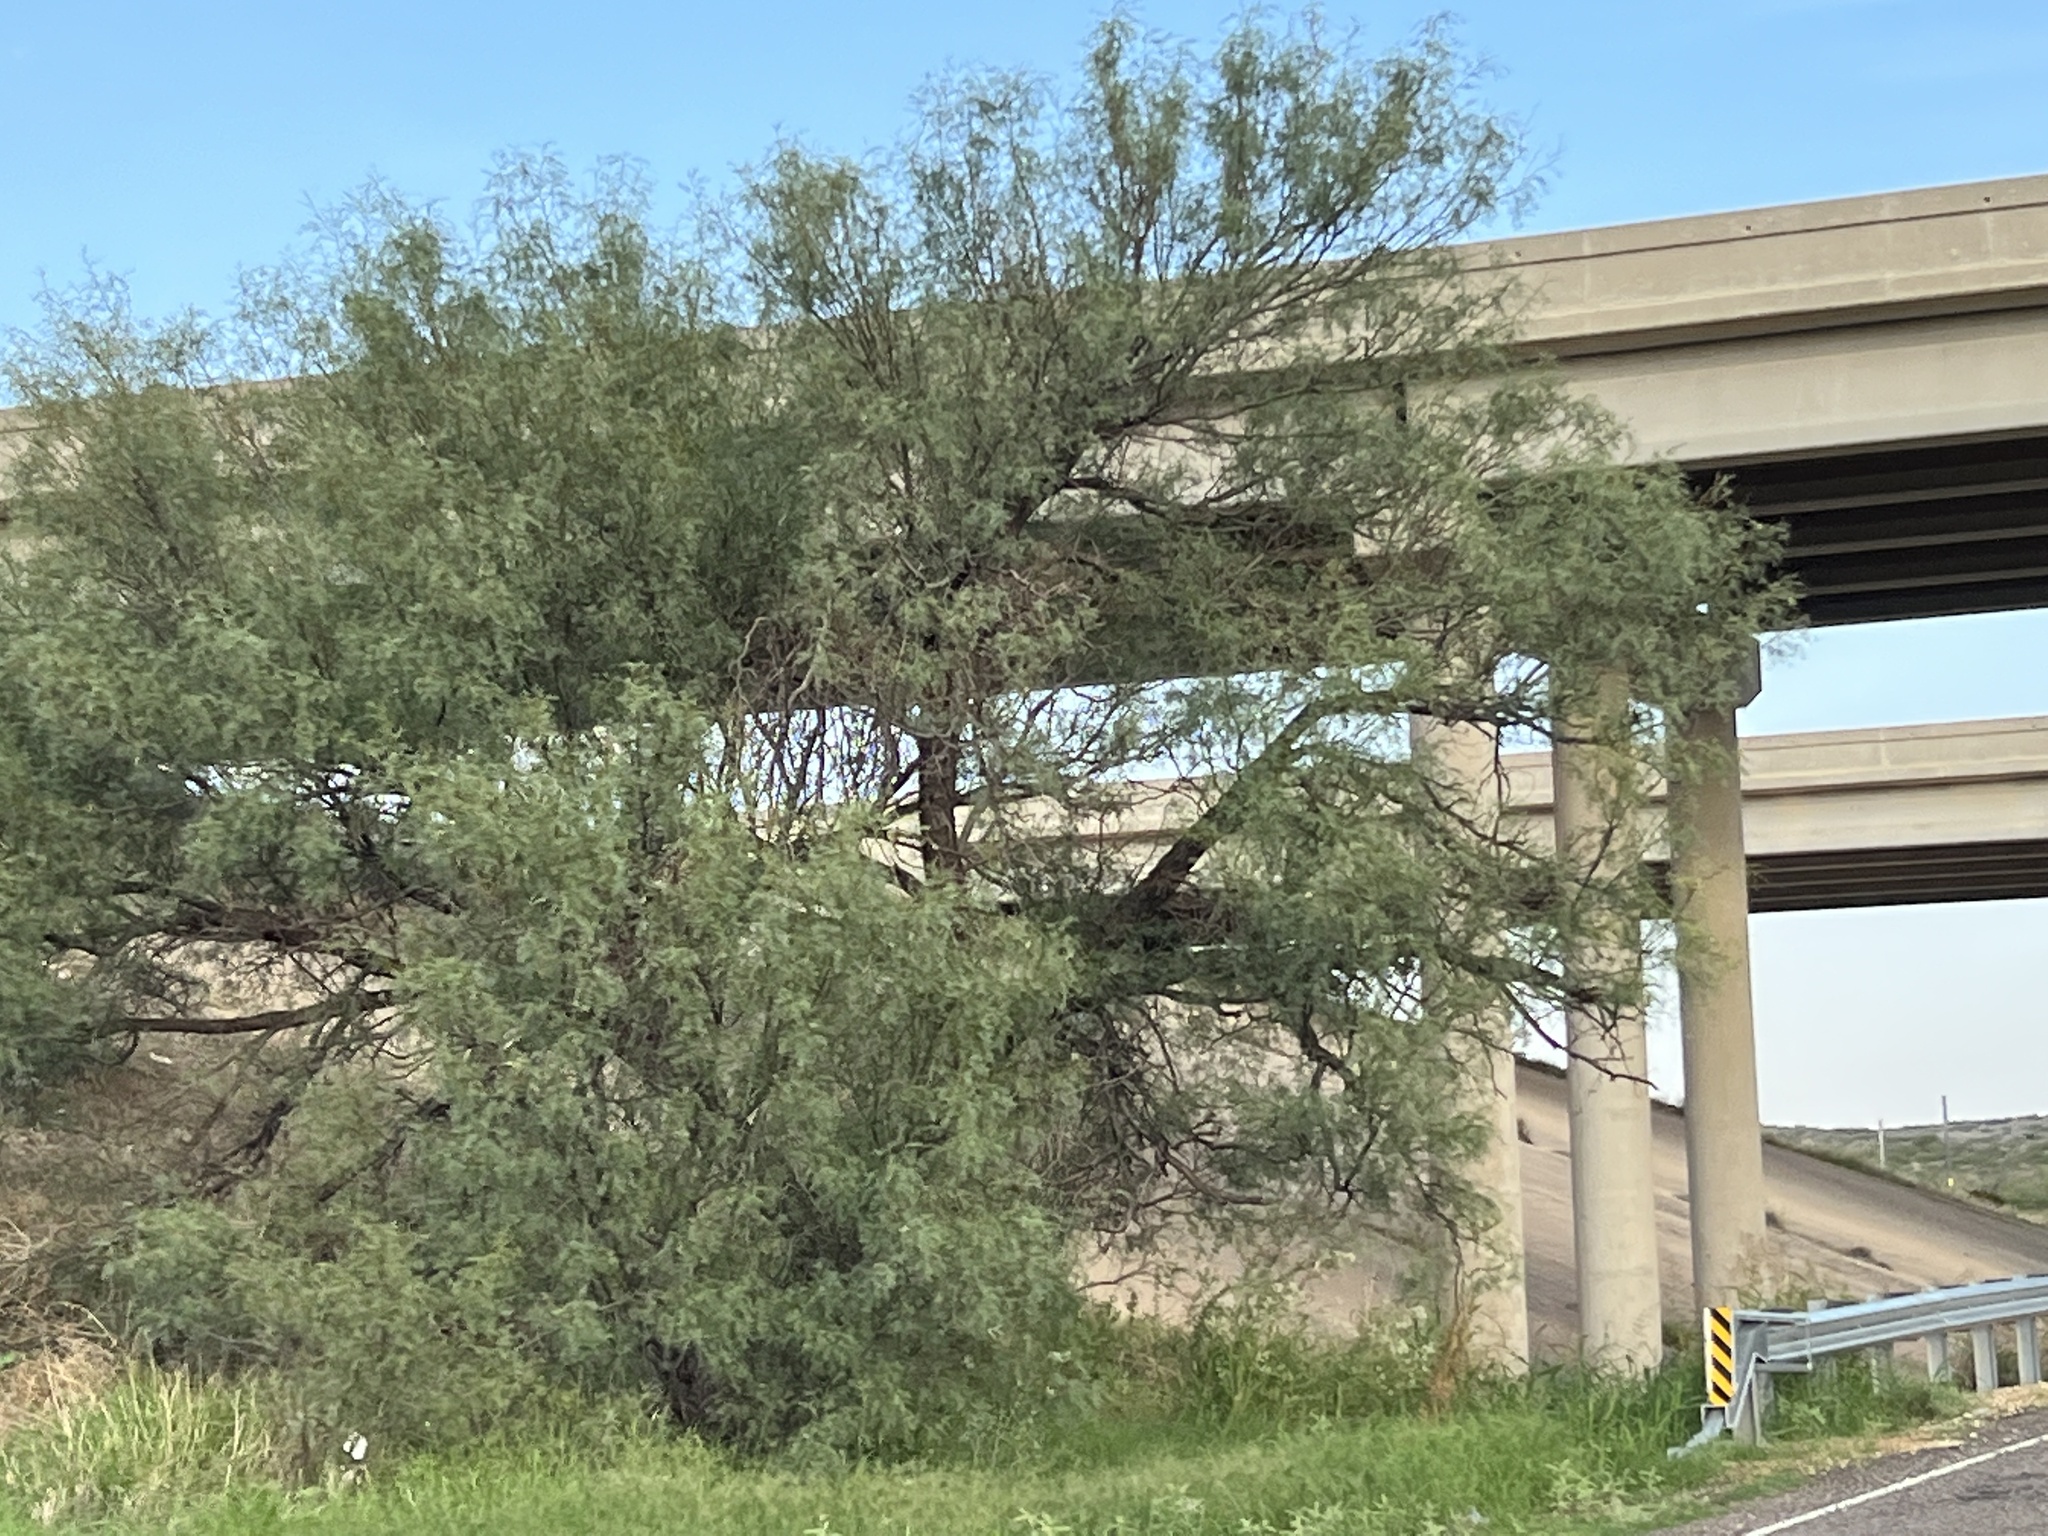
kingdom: Plantae
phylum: Tracheophyta
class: Magnoliopsida
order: Fabales
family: Fabaceae
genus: Prosopis
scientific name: Prosopis glandulosa
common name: Honey mesquite
